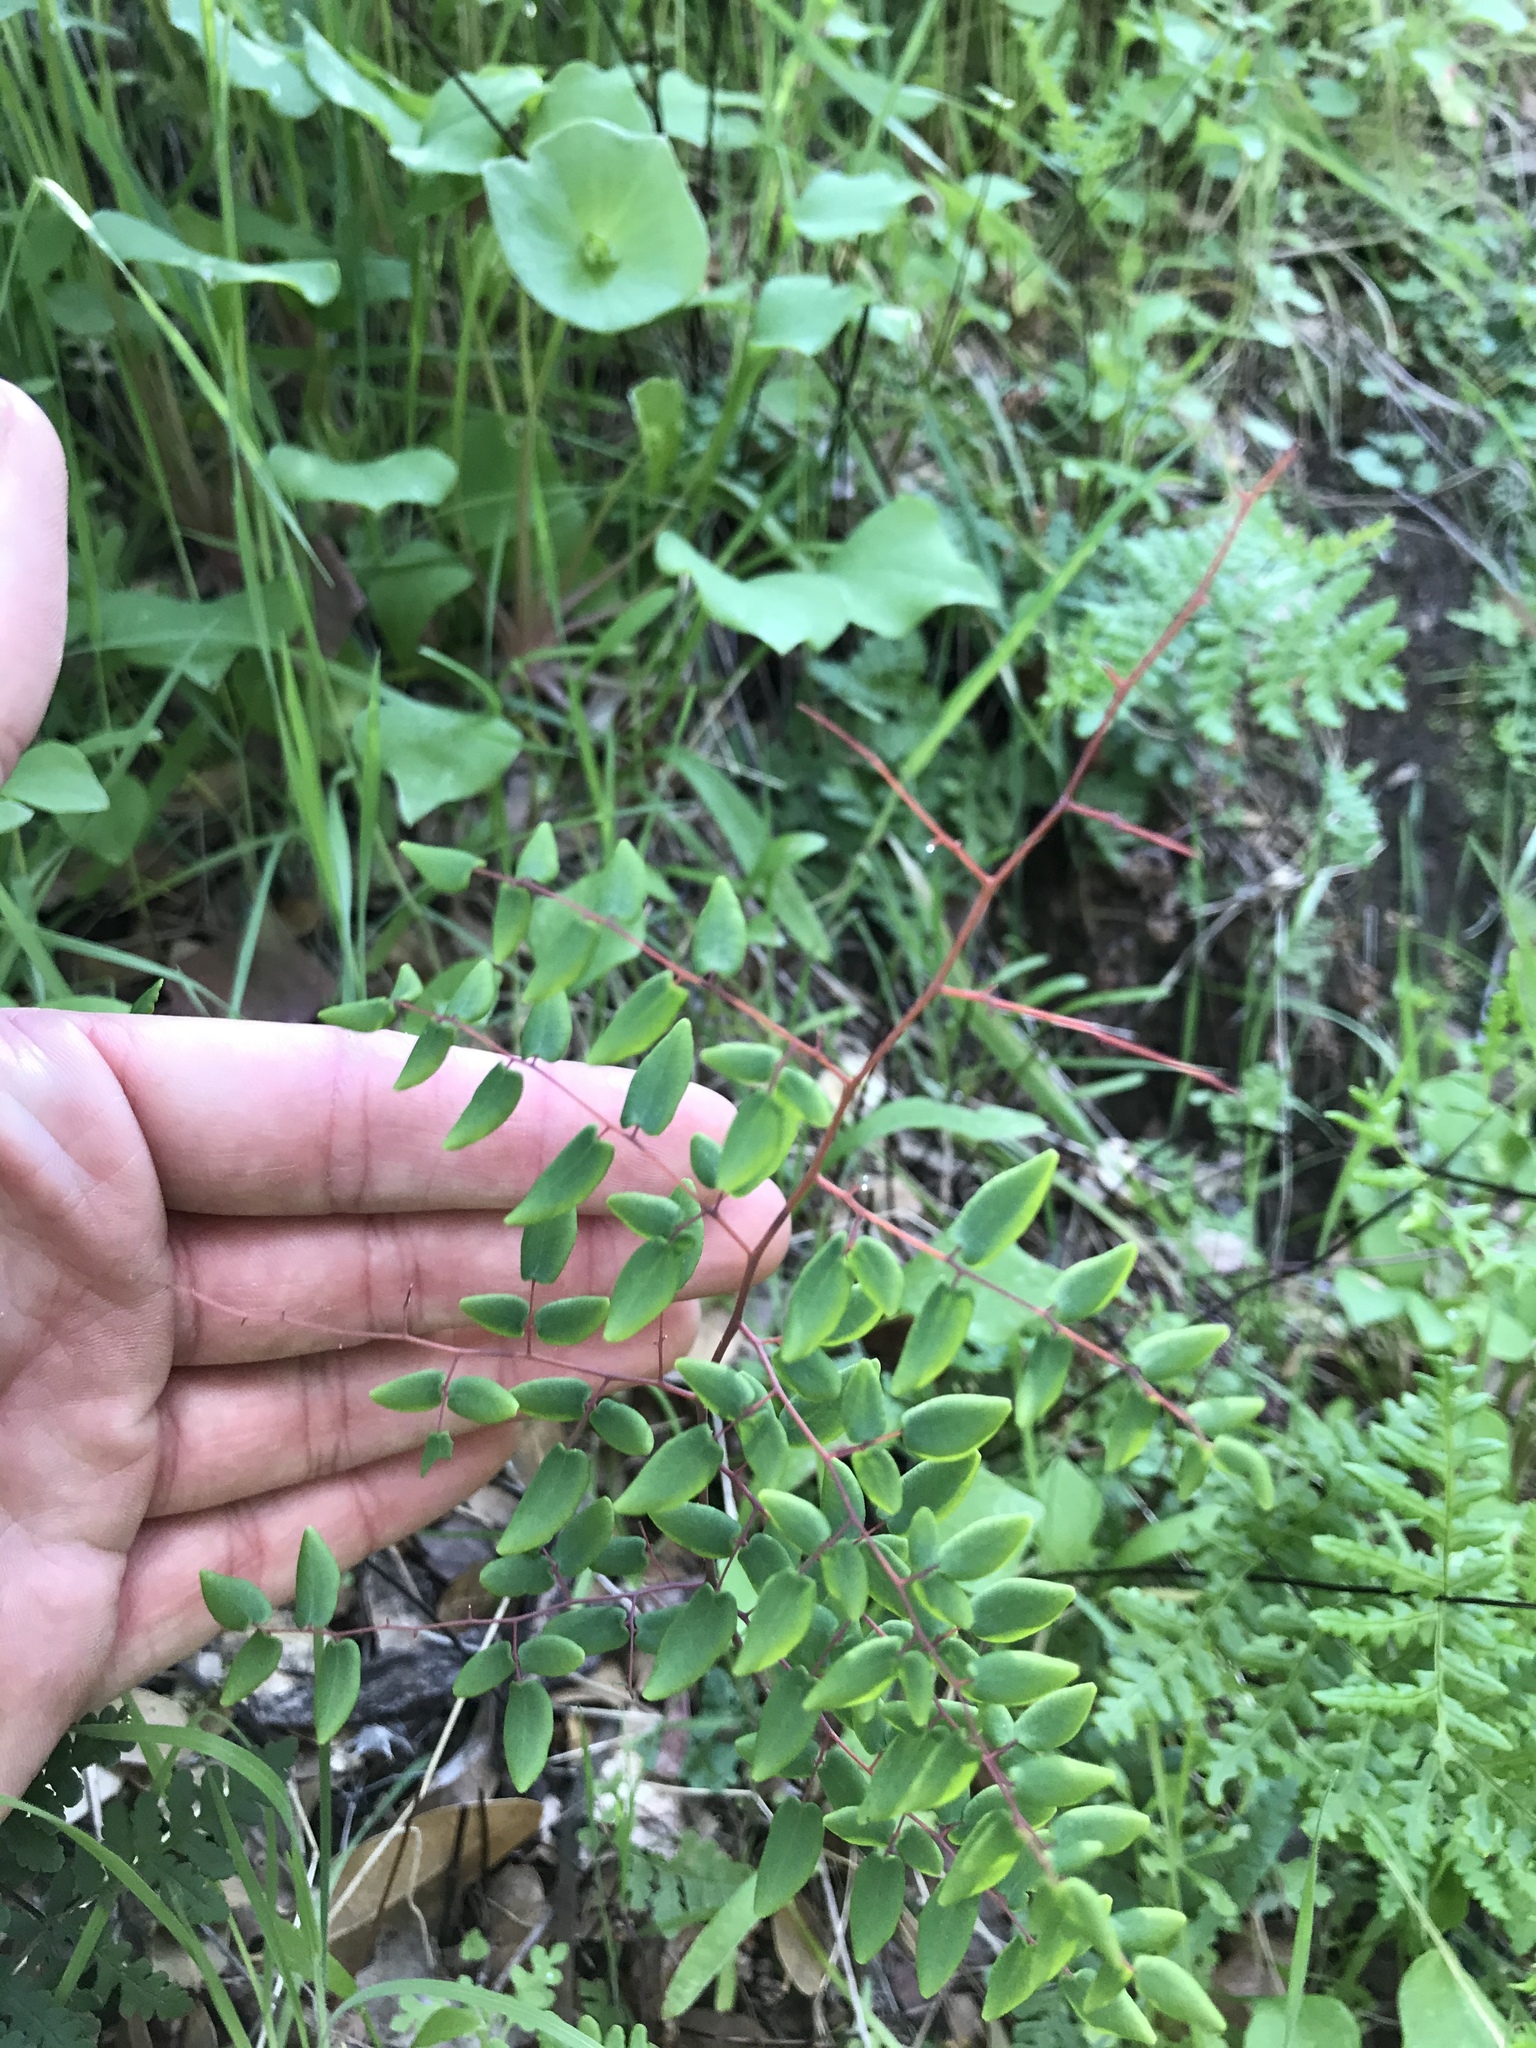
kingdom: Plantae
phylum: Tracheophyta
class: Polypodiopsida
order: Polypodiales
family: Pteridaceae
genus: Pellaea
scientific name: Pellaea andromedifolia
